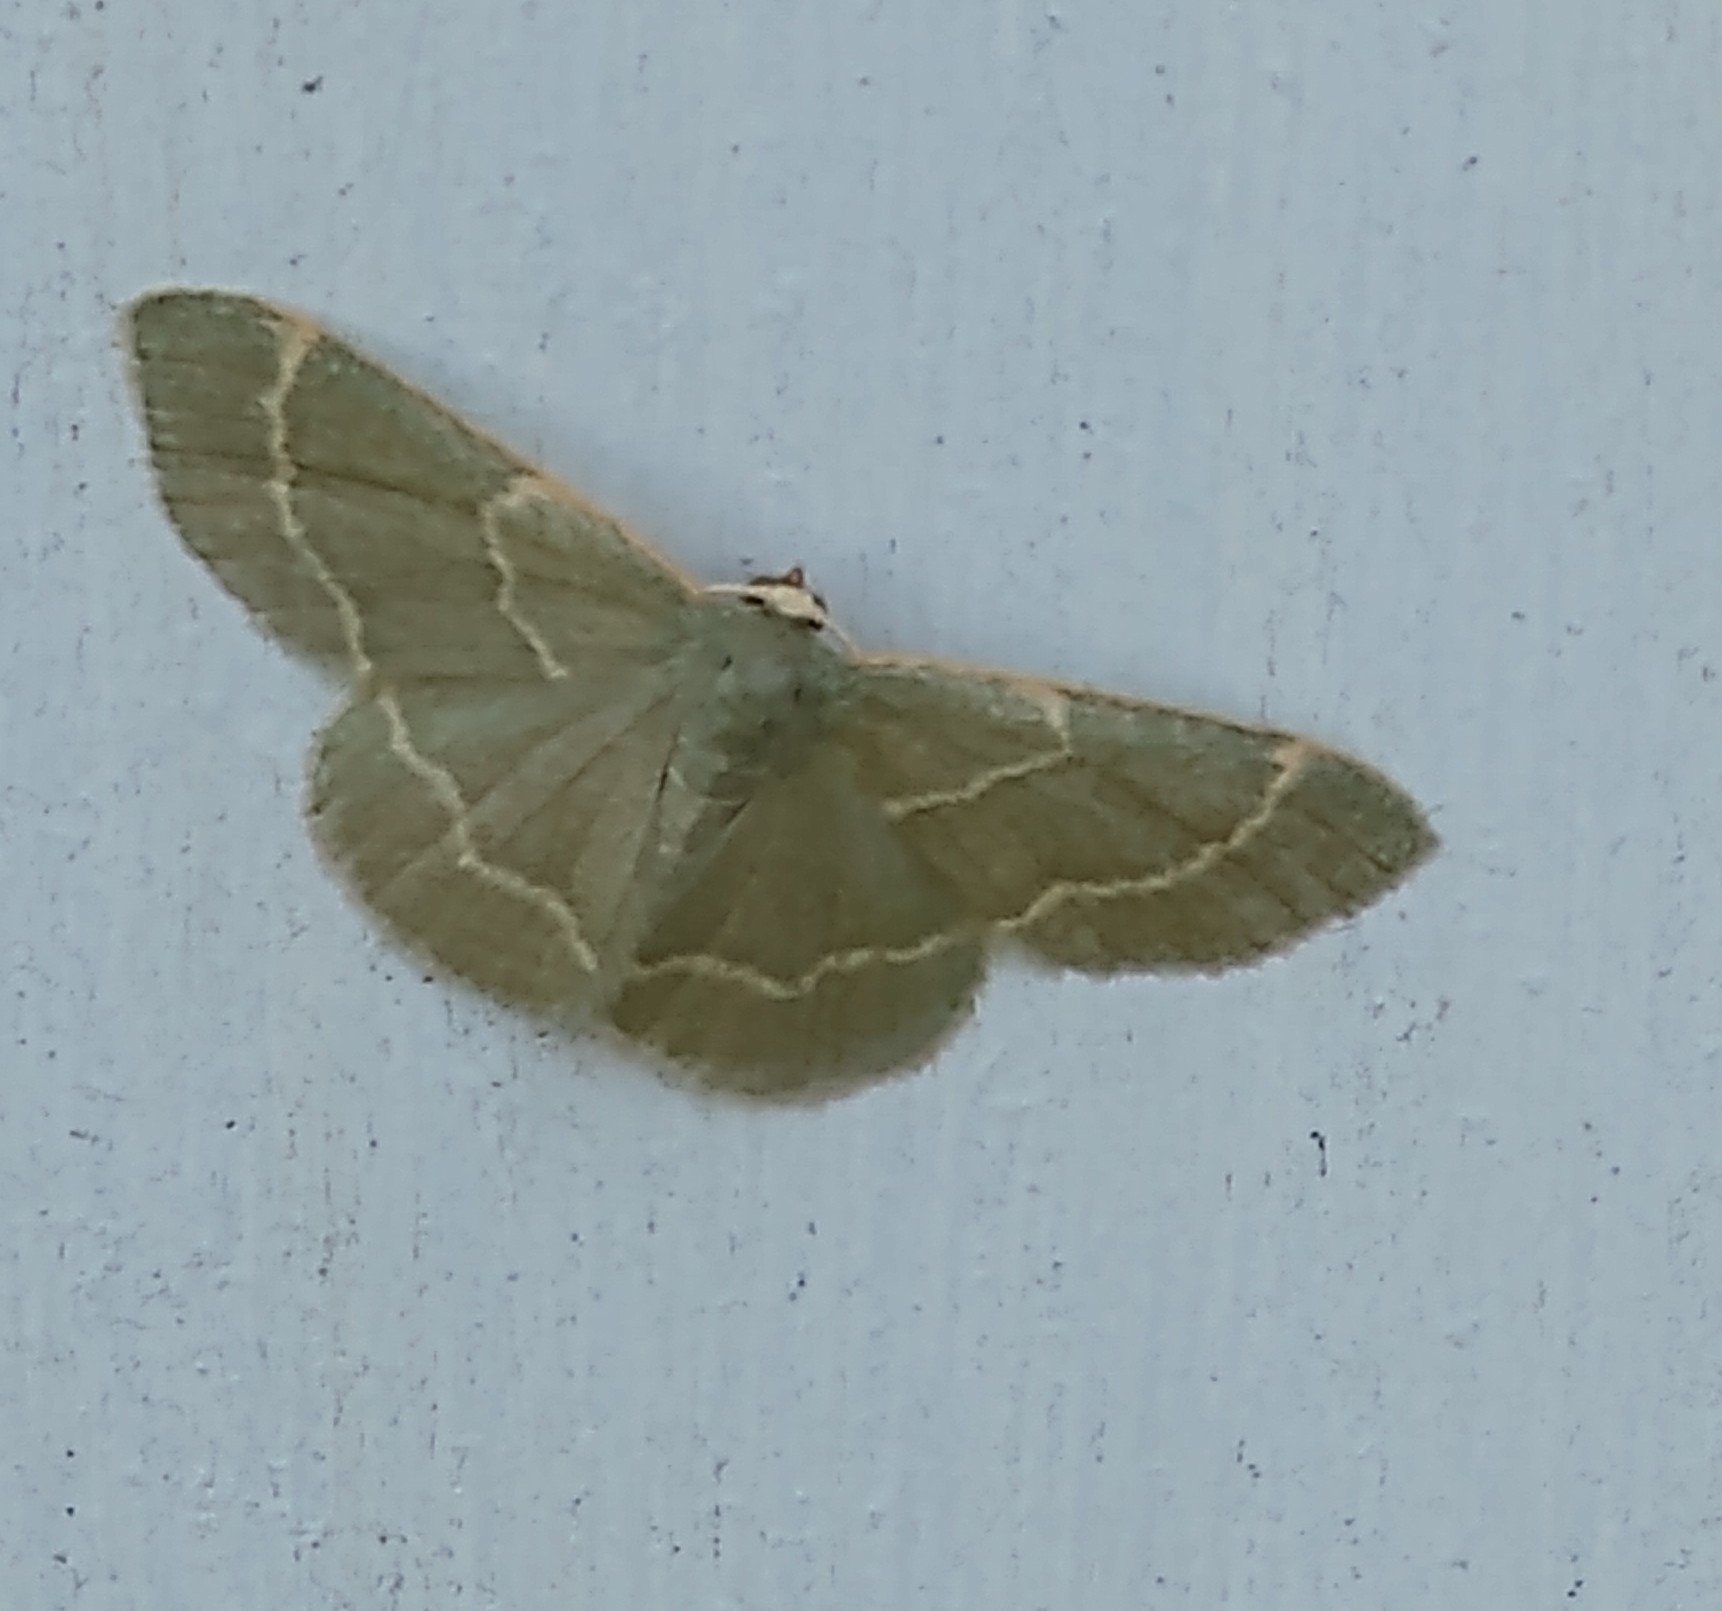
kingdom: Animalia
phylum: Arthropoda
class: Insecta
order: Lepidoptera
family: Geometridae
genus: Chlorochlamys
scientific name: Chlorochlamys phyllinaria
